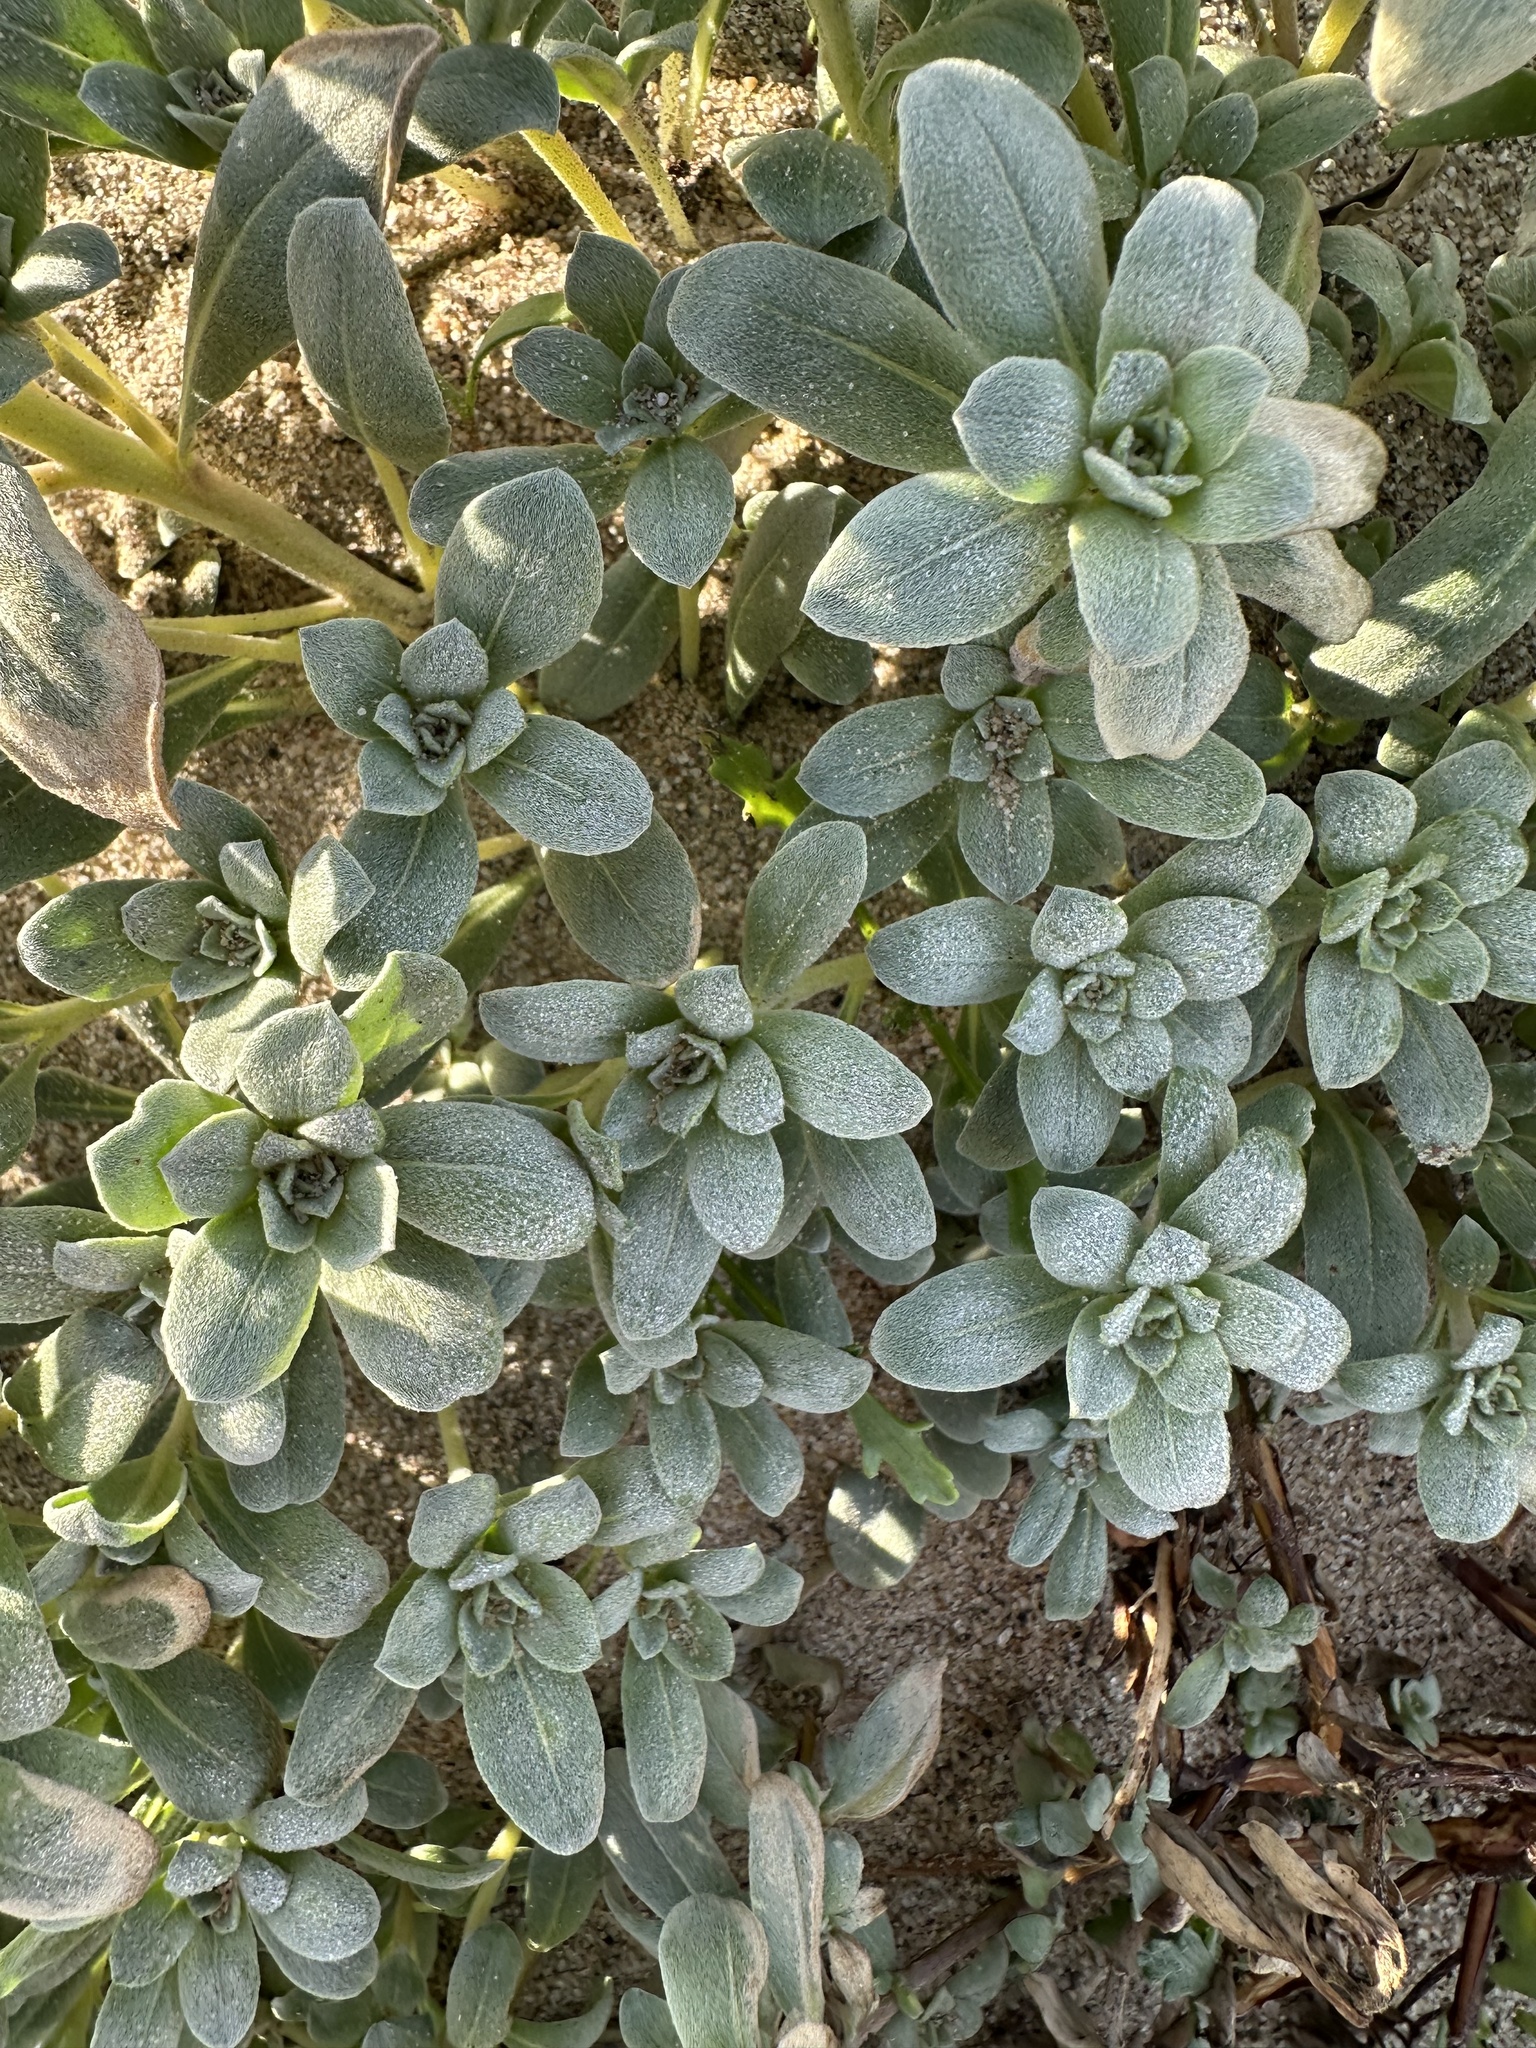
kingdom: Plantae
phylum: Tracheophyta
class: Magnoliopsida
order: Myrtales
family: Onagraceae
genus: Camissoniopsis
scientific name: Camissoniopsis cheiranthifolia
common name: Beach suncup
